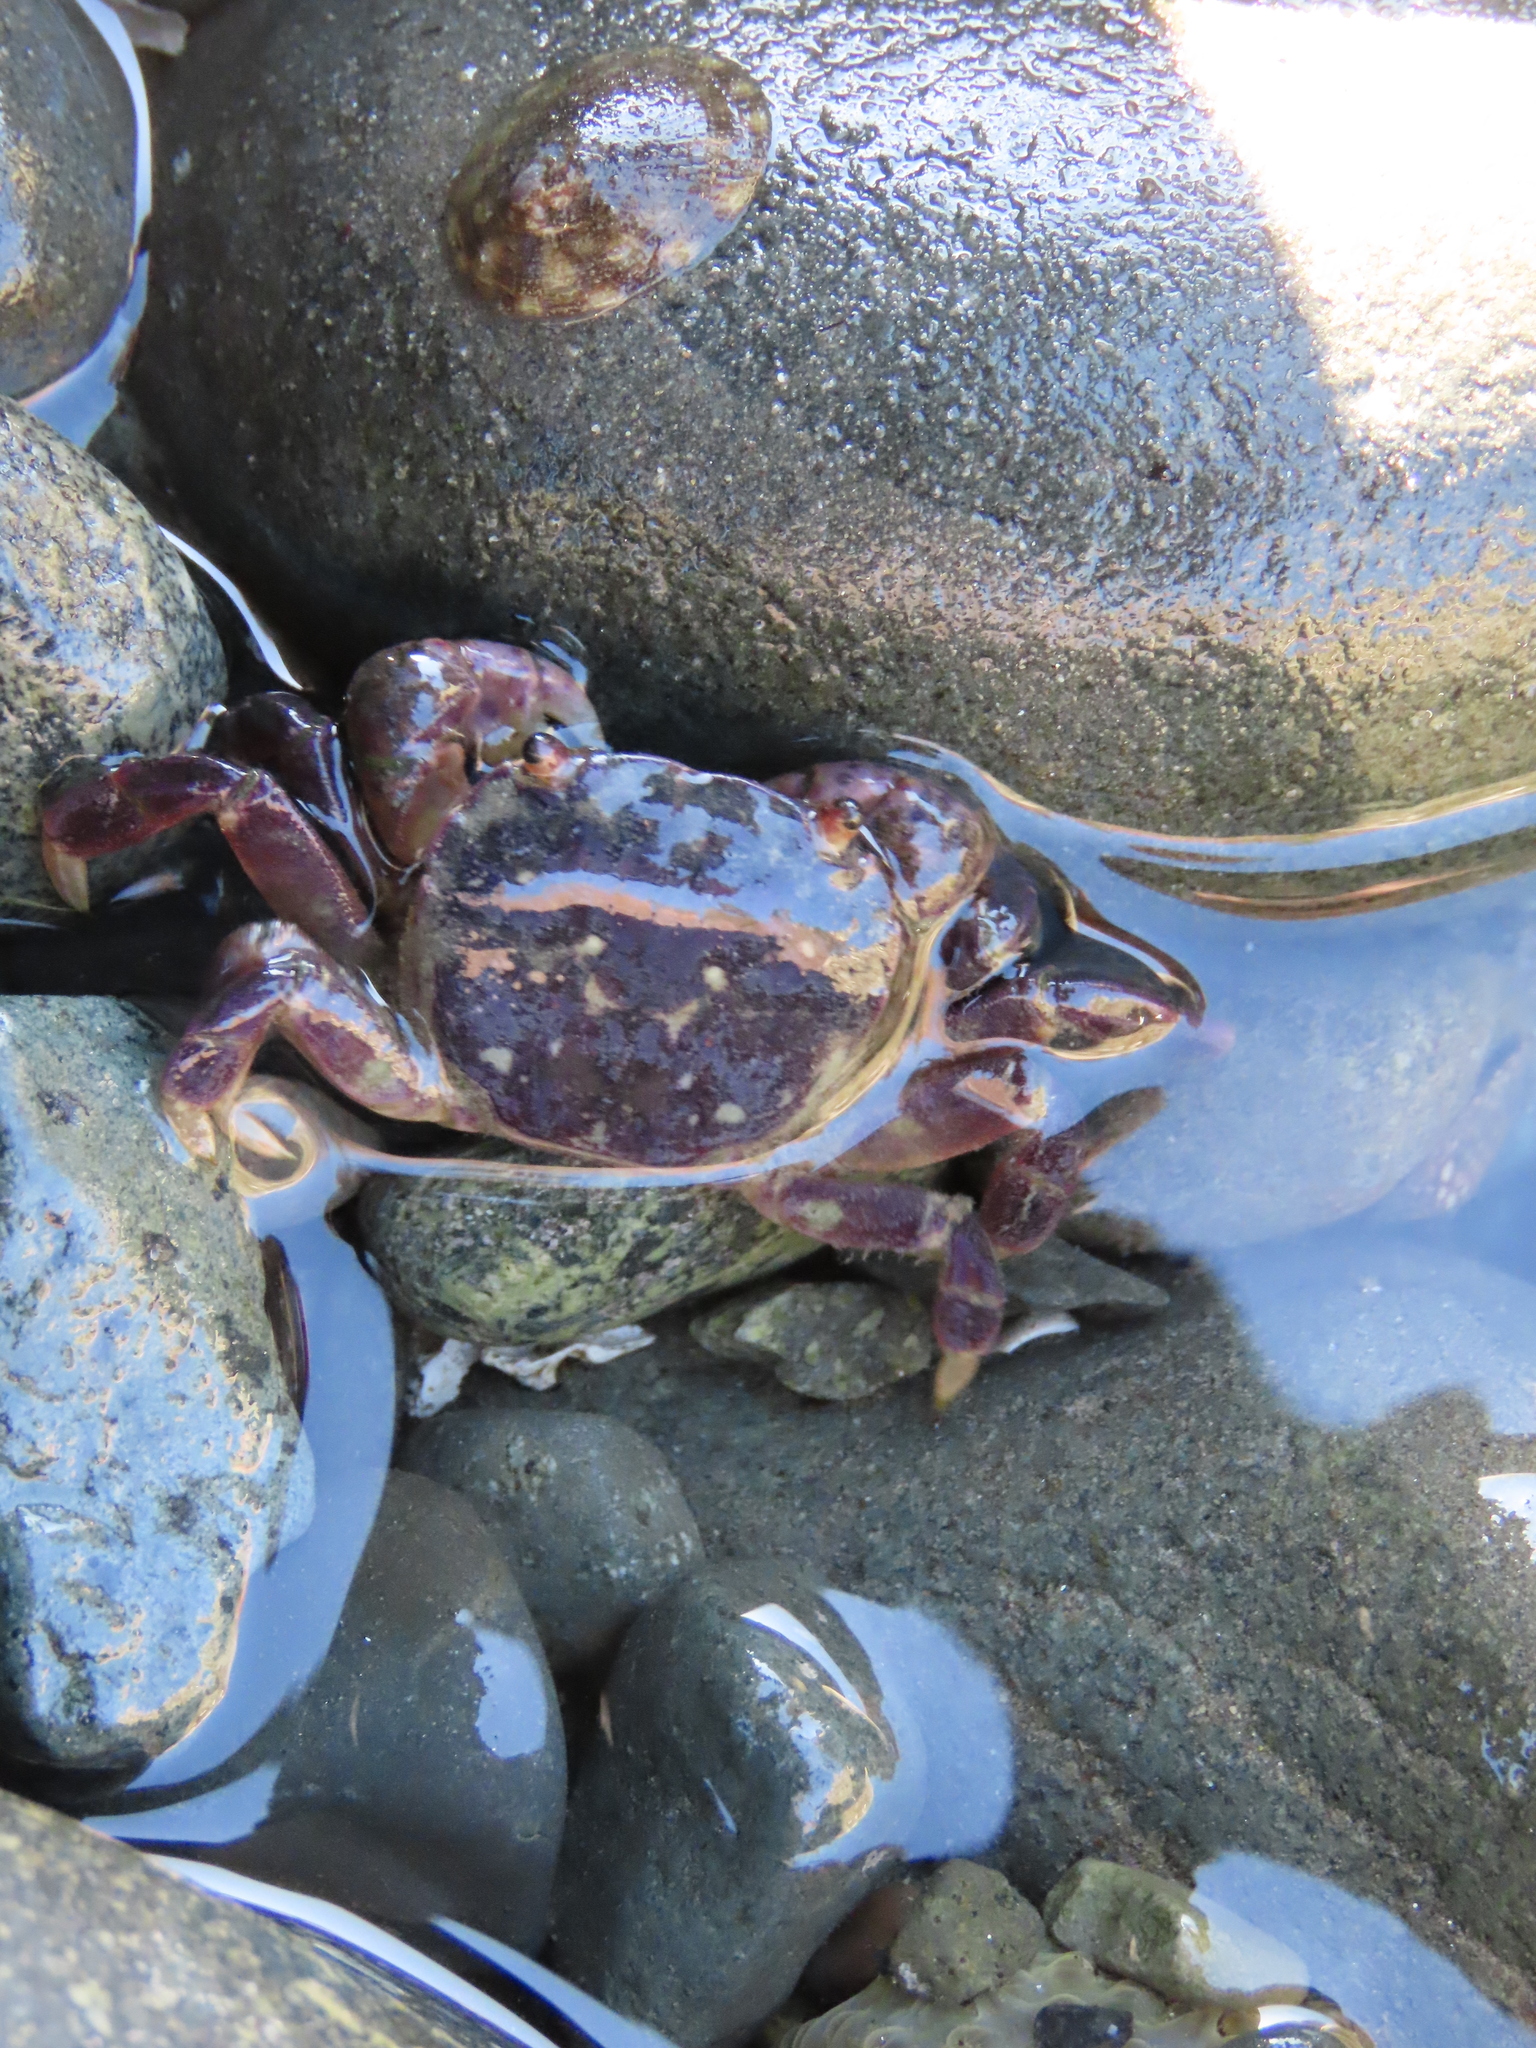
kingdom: Animalia
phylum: Arthropoda
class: Malacostraca
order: Decapoda
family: Varunidae
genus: Hemigrapsus
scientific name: Hemigrapsus nudus
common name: Purple shore crab
